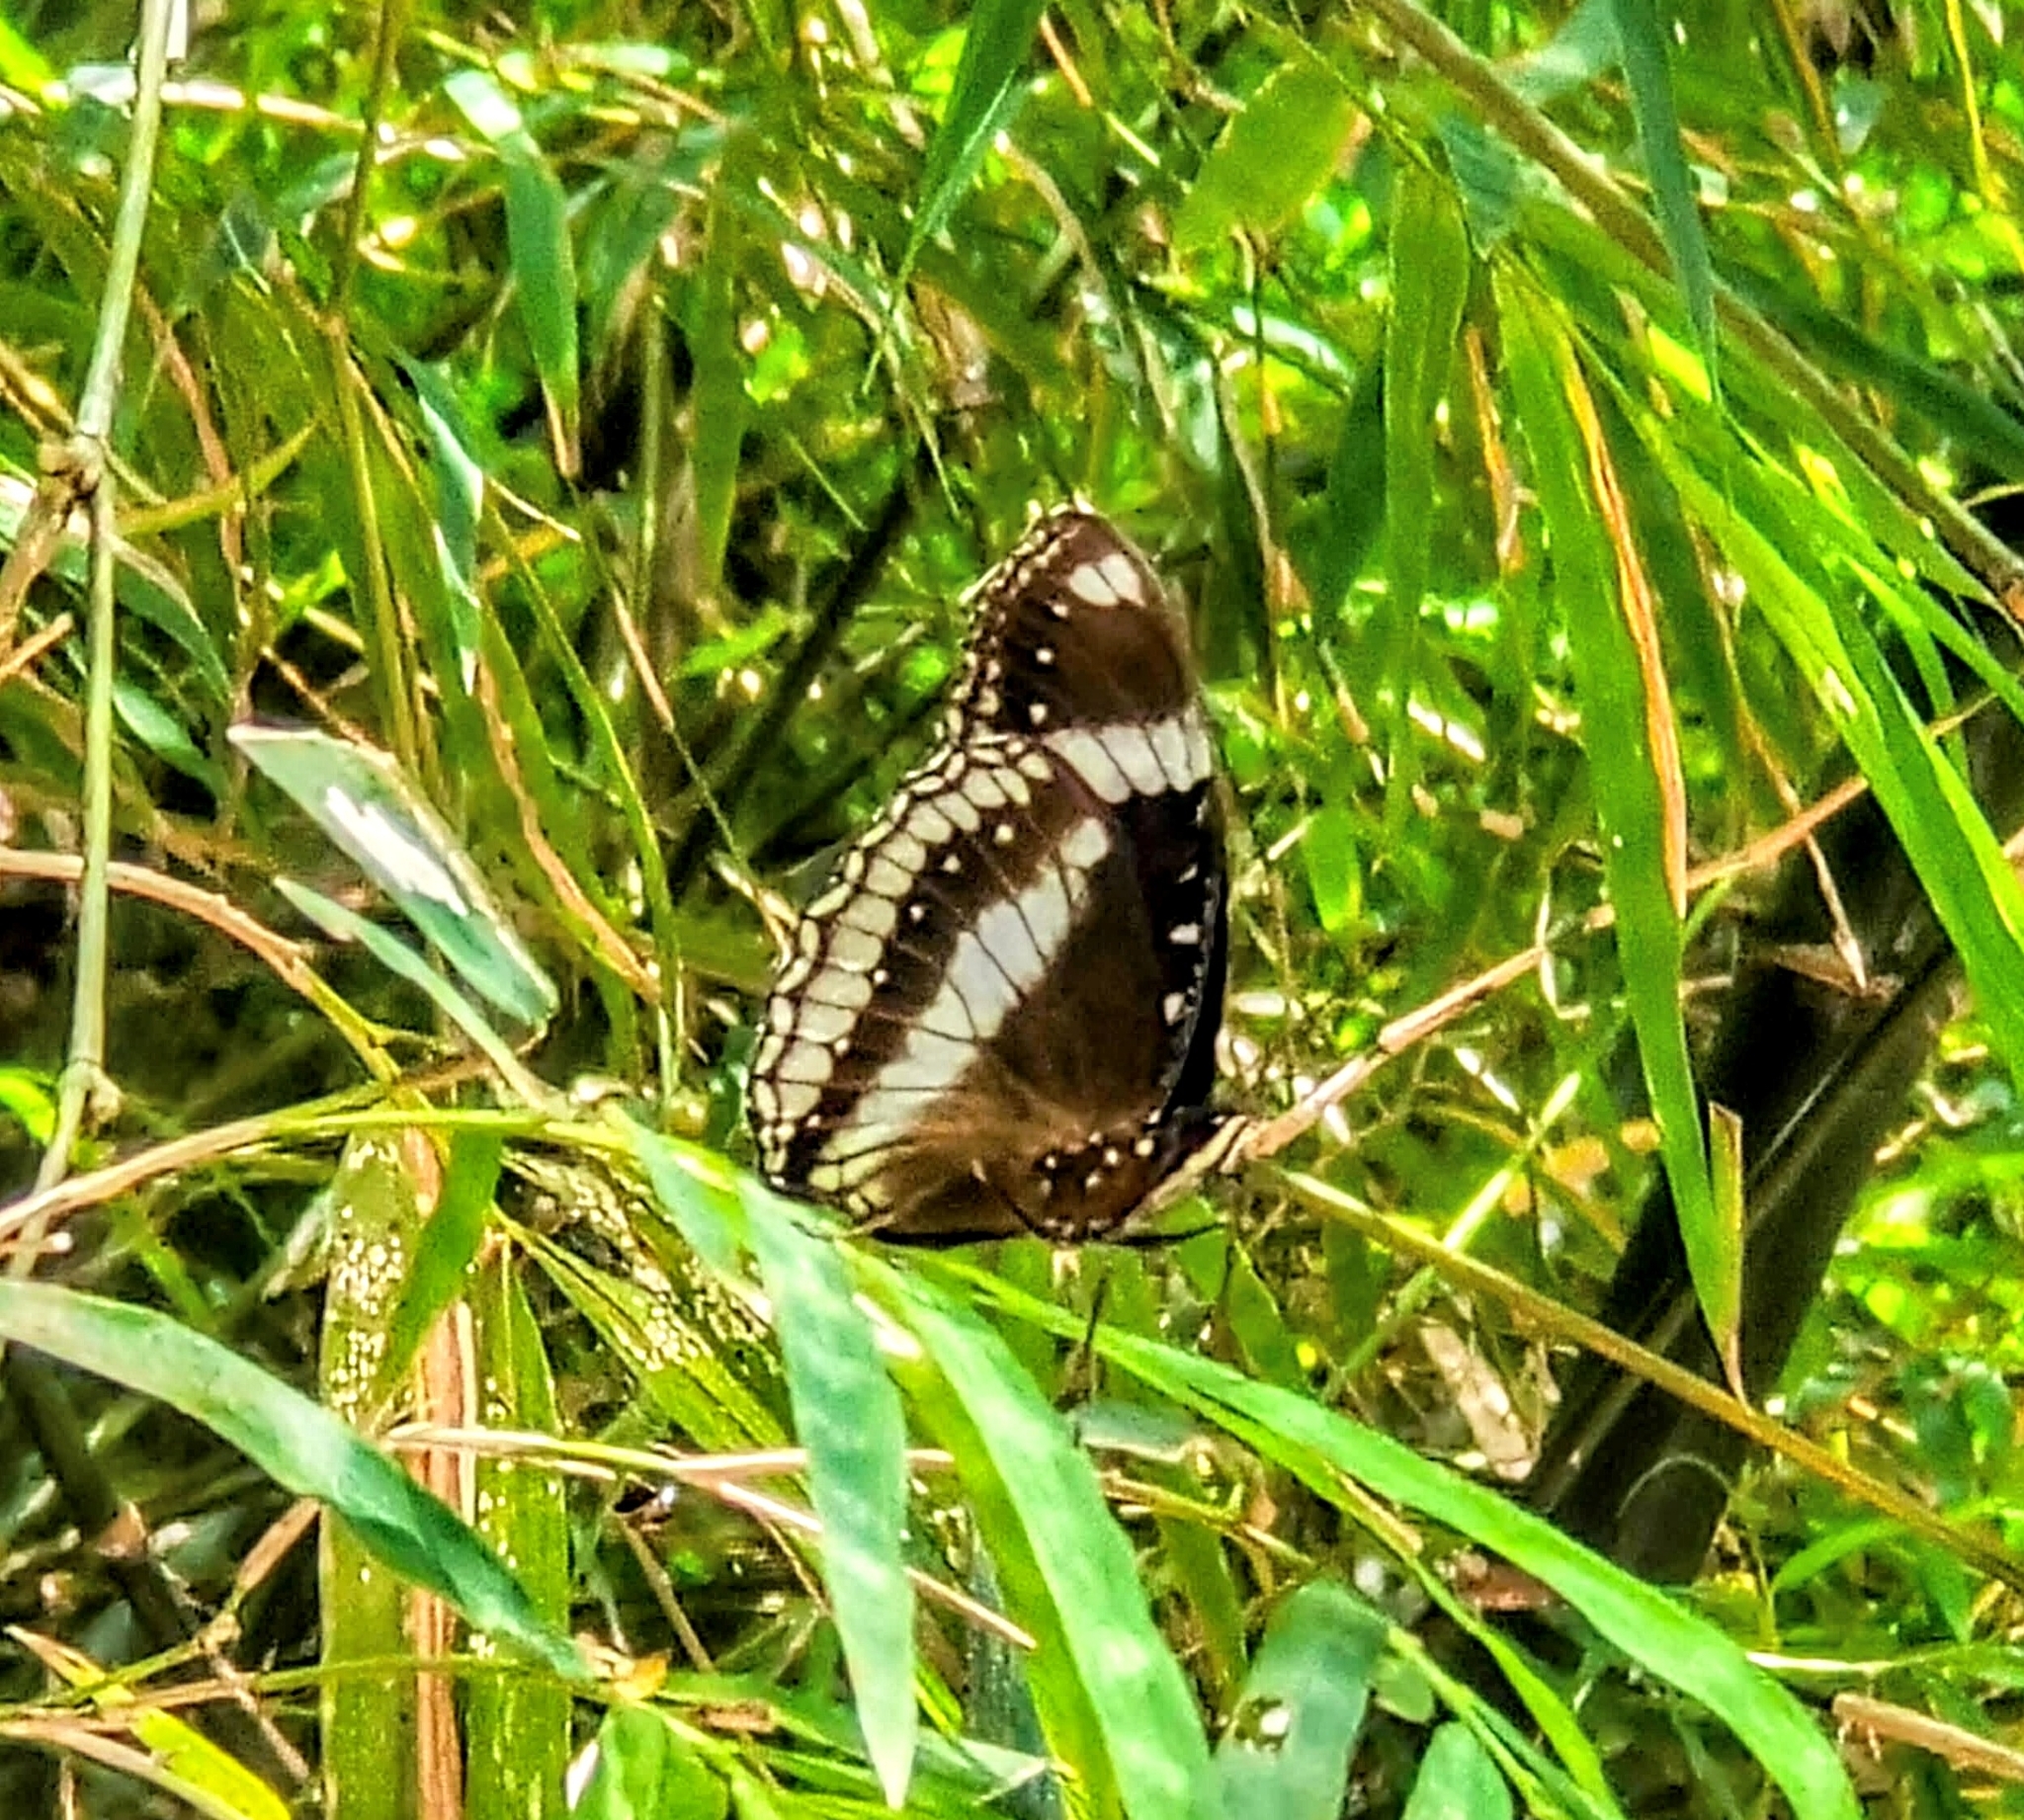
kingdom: Animalia
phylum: Arthropoda
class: Insecta
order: Lepidoptera
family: Nymphalidae
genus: Hypolimnas
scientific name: Hypolimnas bolina
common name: Great eggfly
